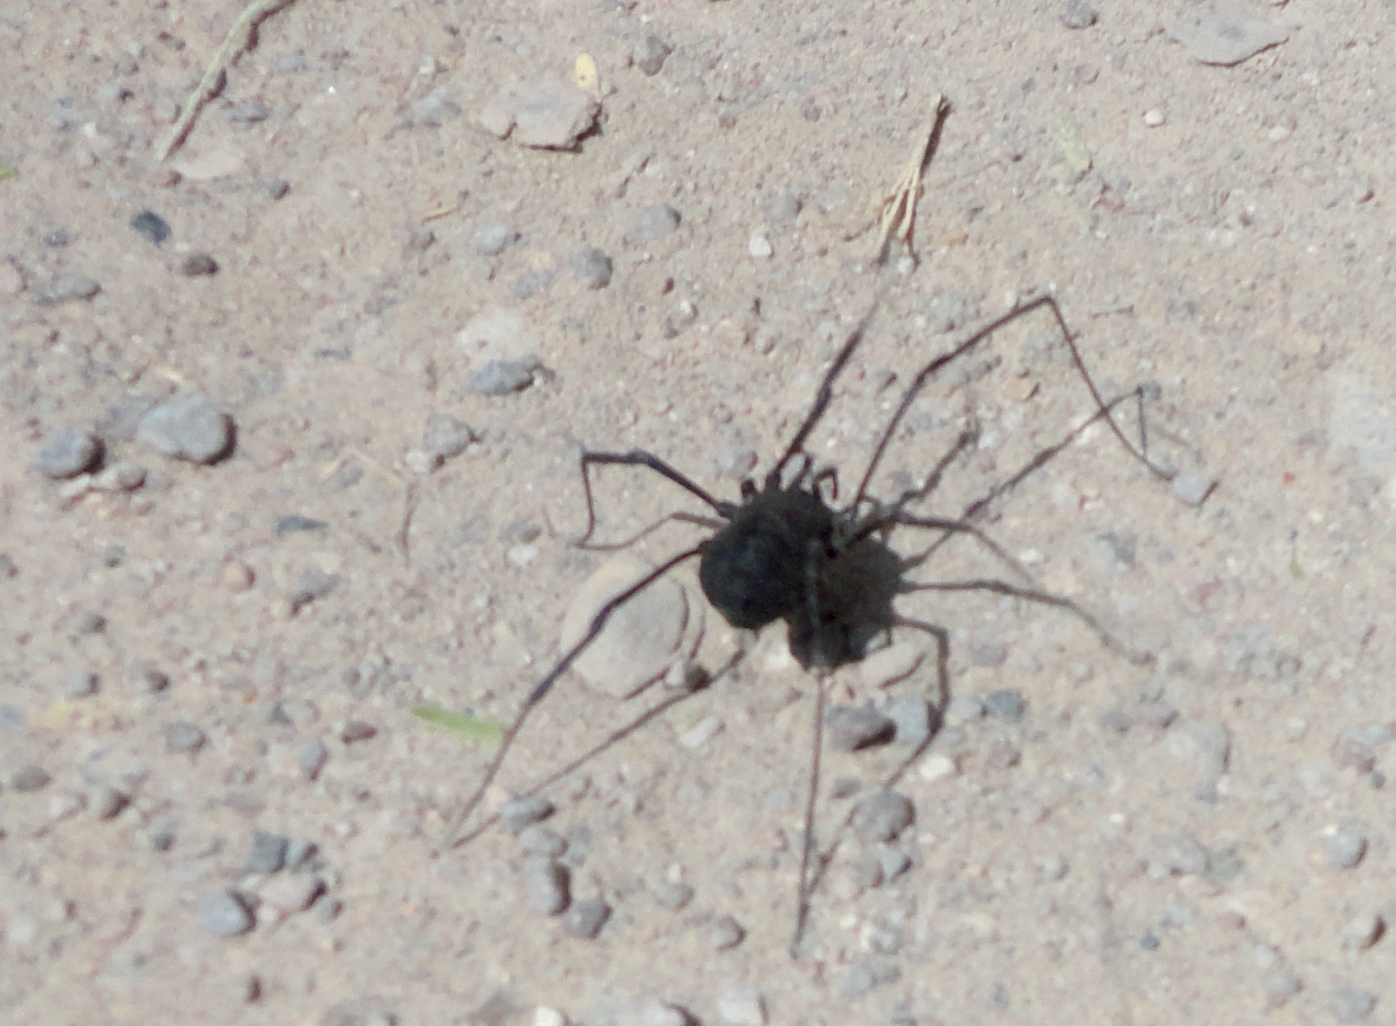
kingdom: Animalia
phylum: Arthropoda
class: Arachnida
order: Opiliones
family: Globipedidae
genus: Diguetinus
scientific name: Diguetinus raptator
